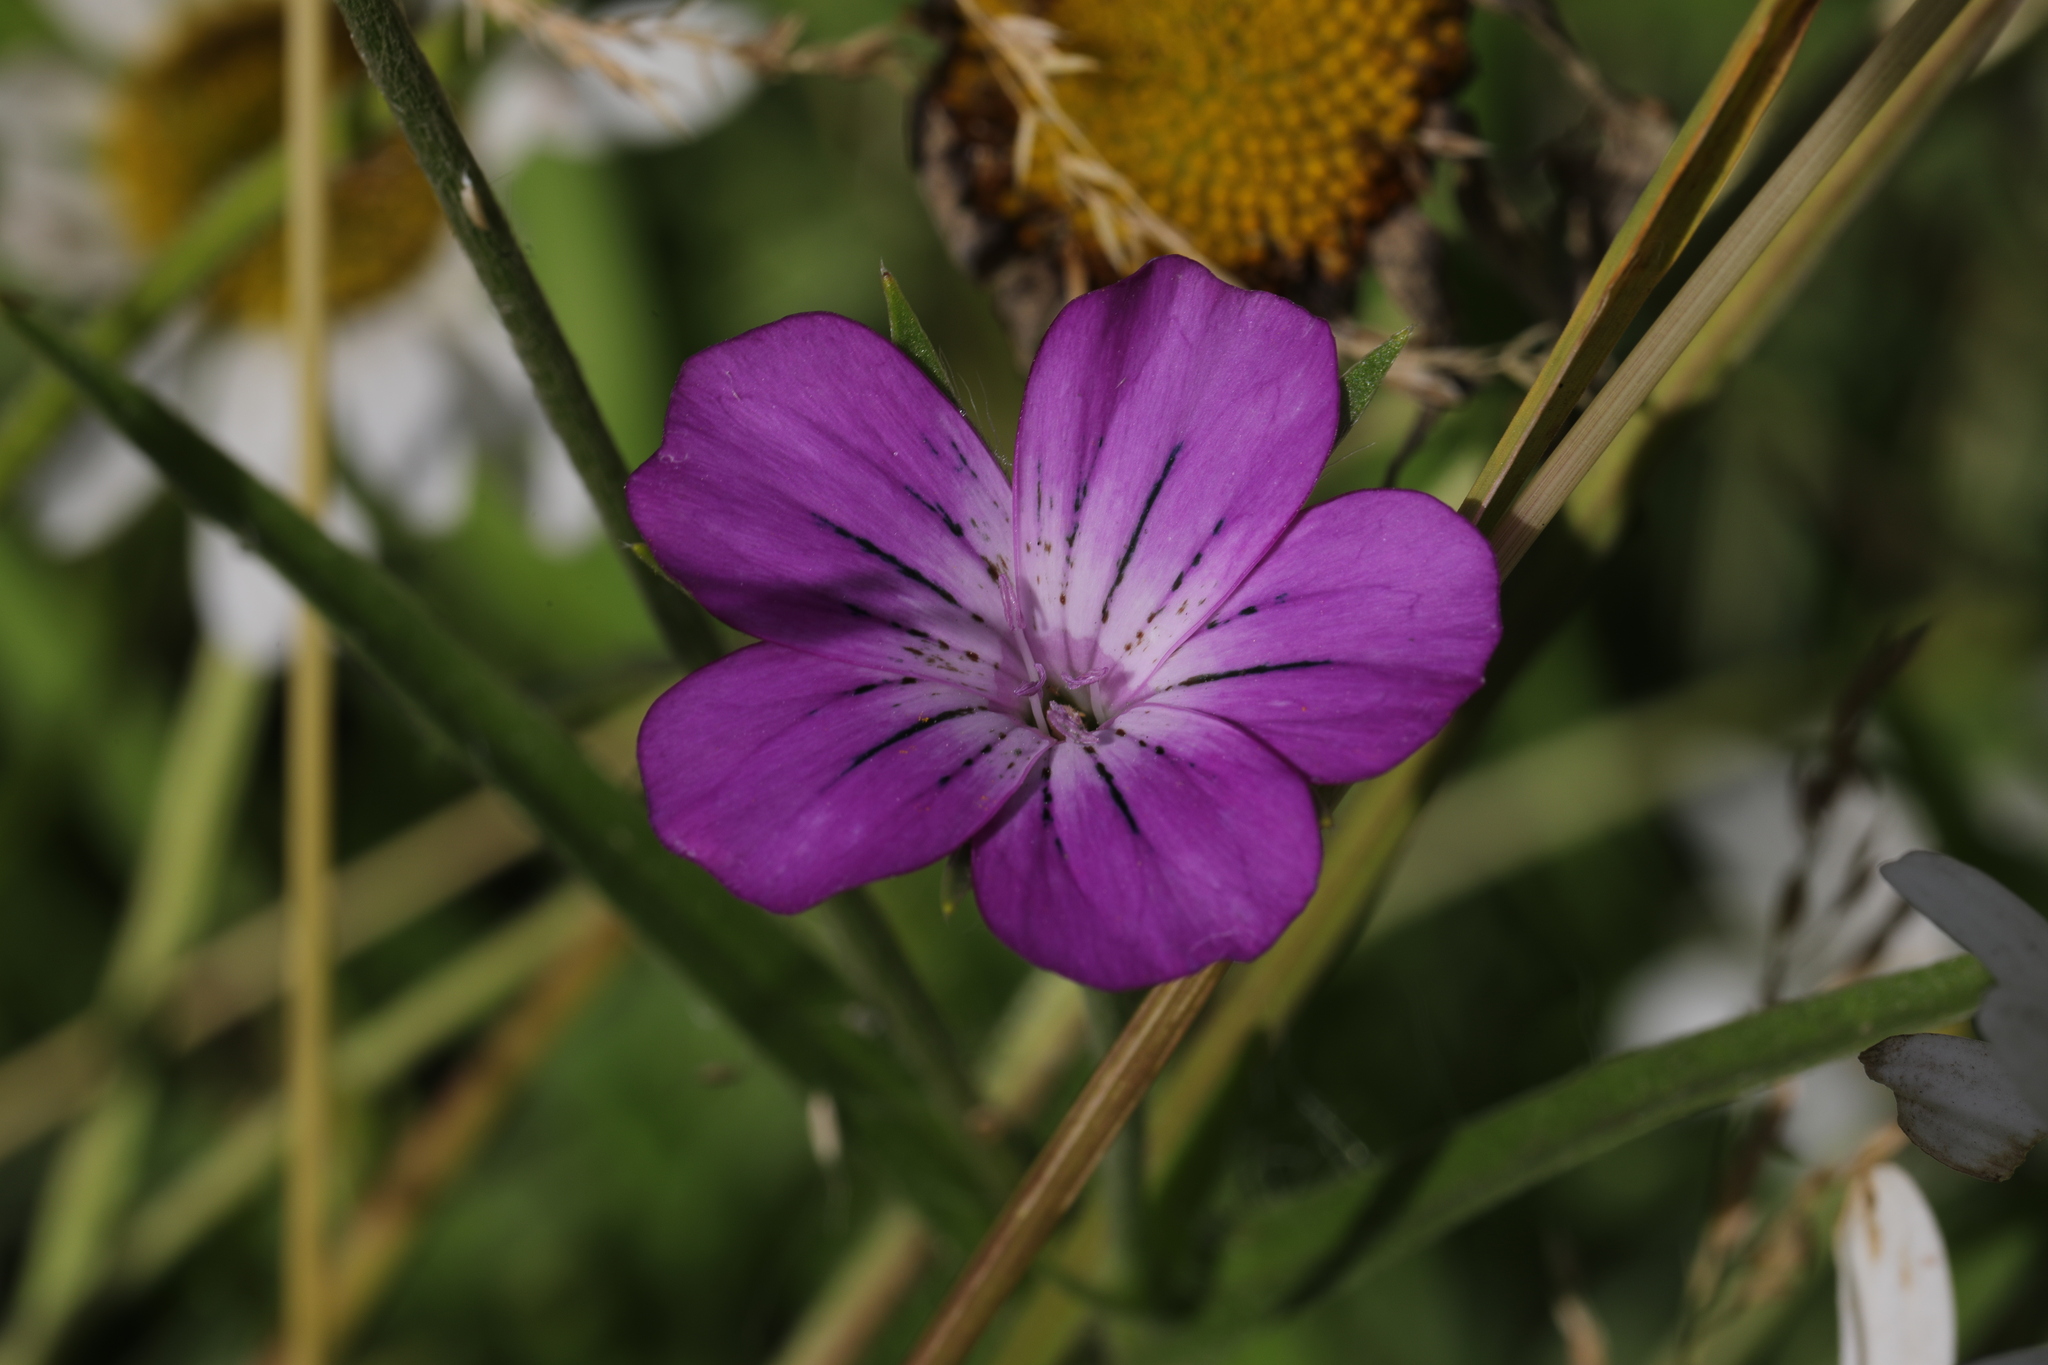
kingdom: Plantae
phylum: Tracheophyta
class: Magnoliopsida
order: Caryophyllales
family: Caryophyllaceae
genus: Agrostemma
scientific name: Agrostemma githago
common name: Common corncockle
